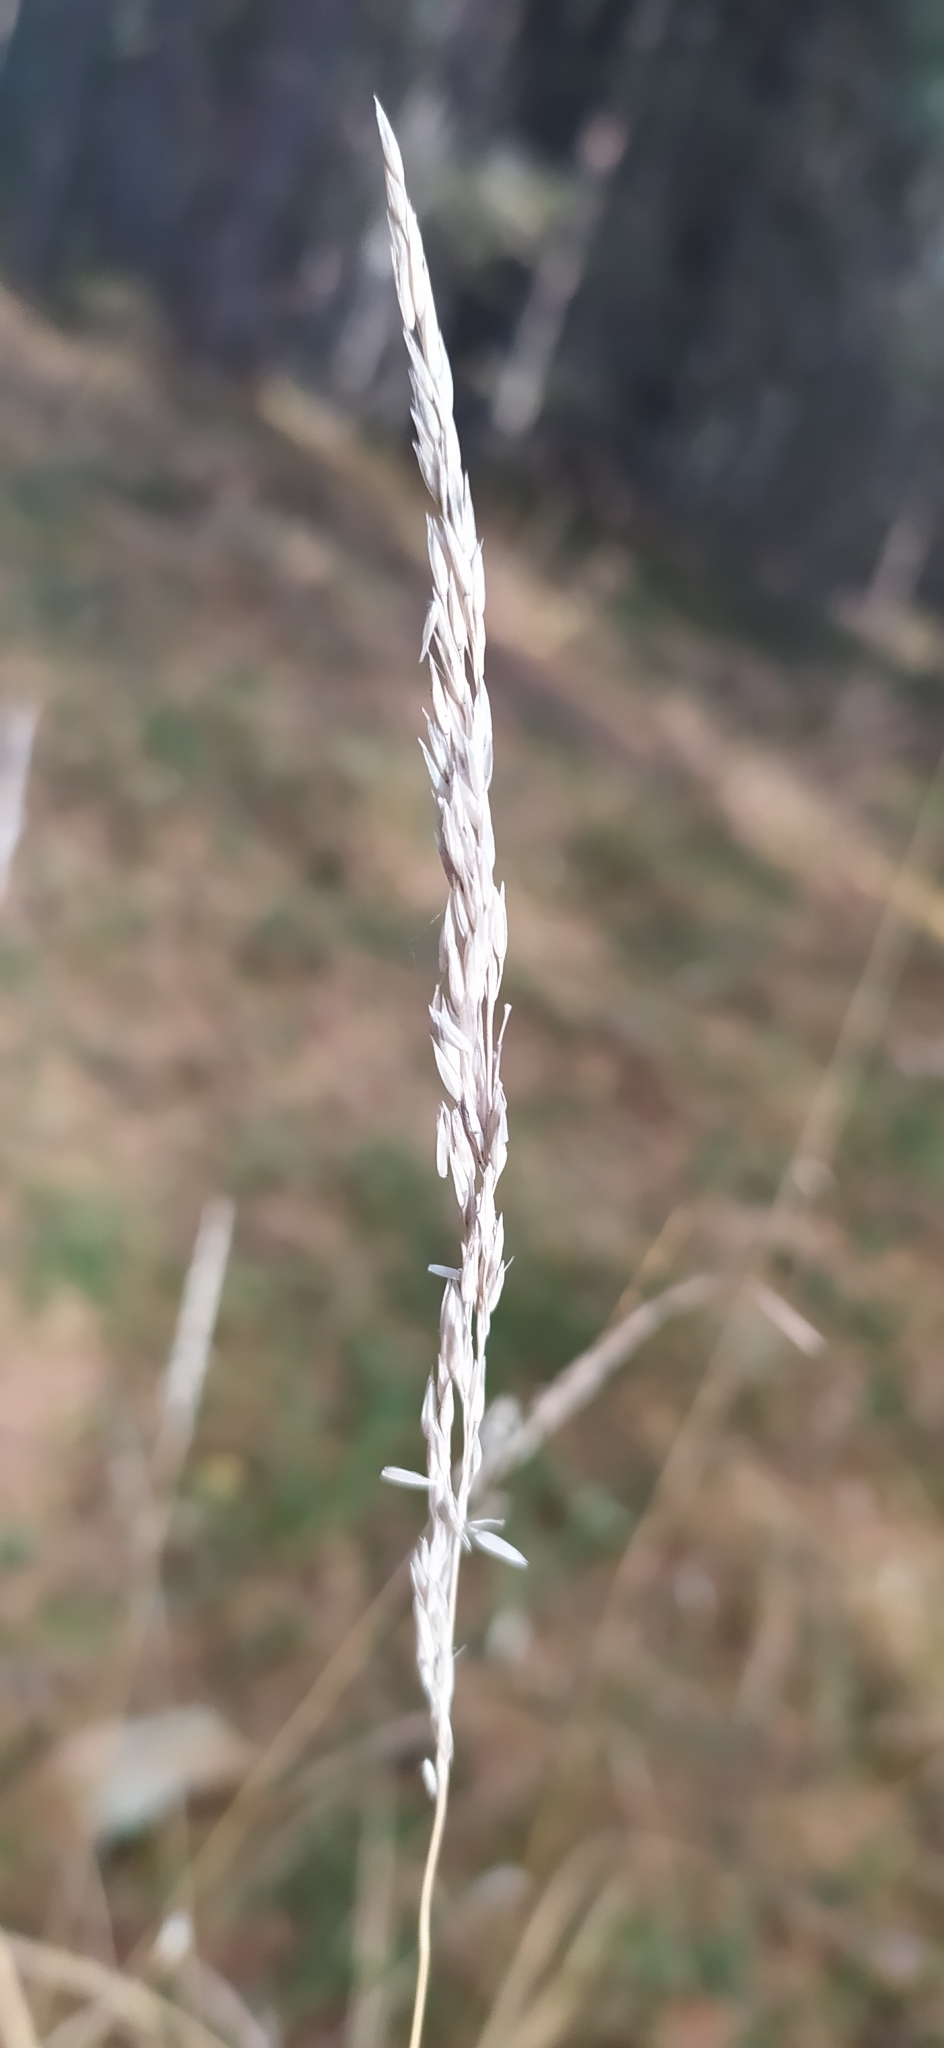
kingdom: Plantae
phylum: Tracheophyta
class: Liliopsida
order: Poales
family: Poaceae
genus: Calamagrostis
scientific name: Calamagrostis arundinacea
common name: Metskastik
